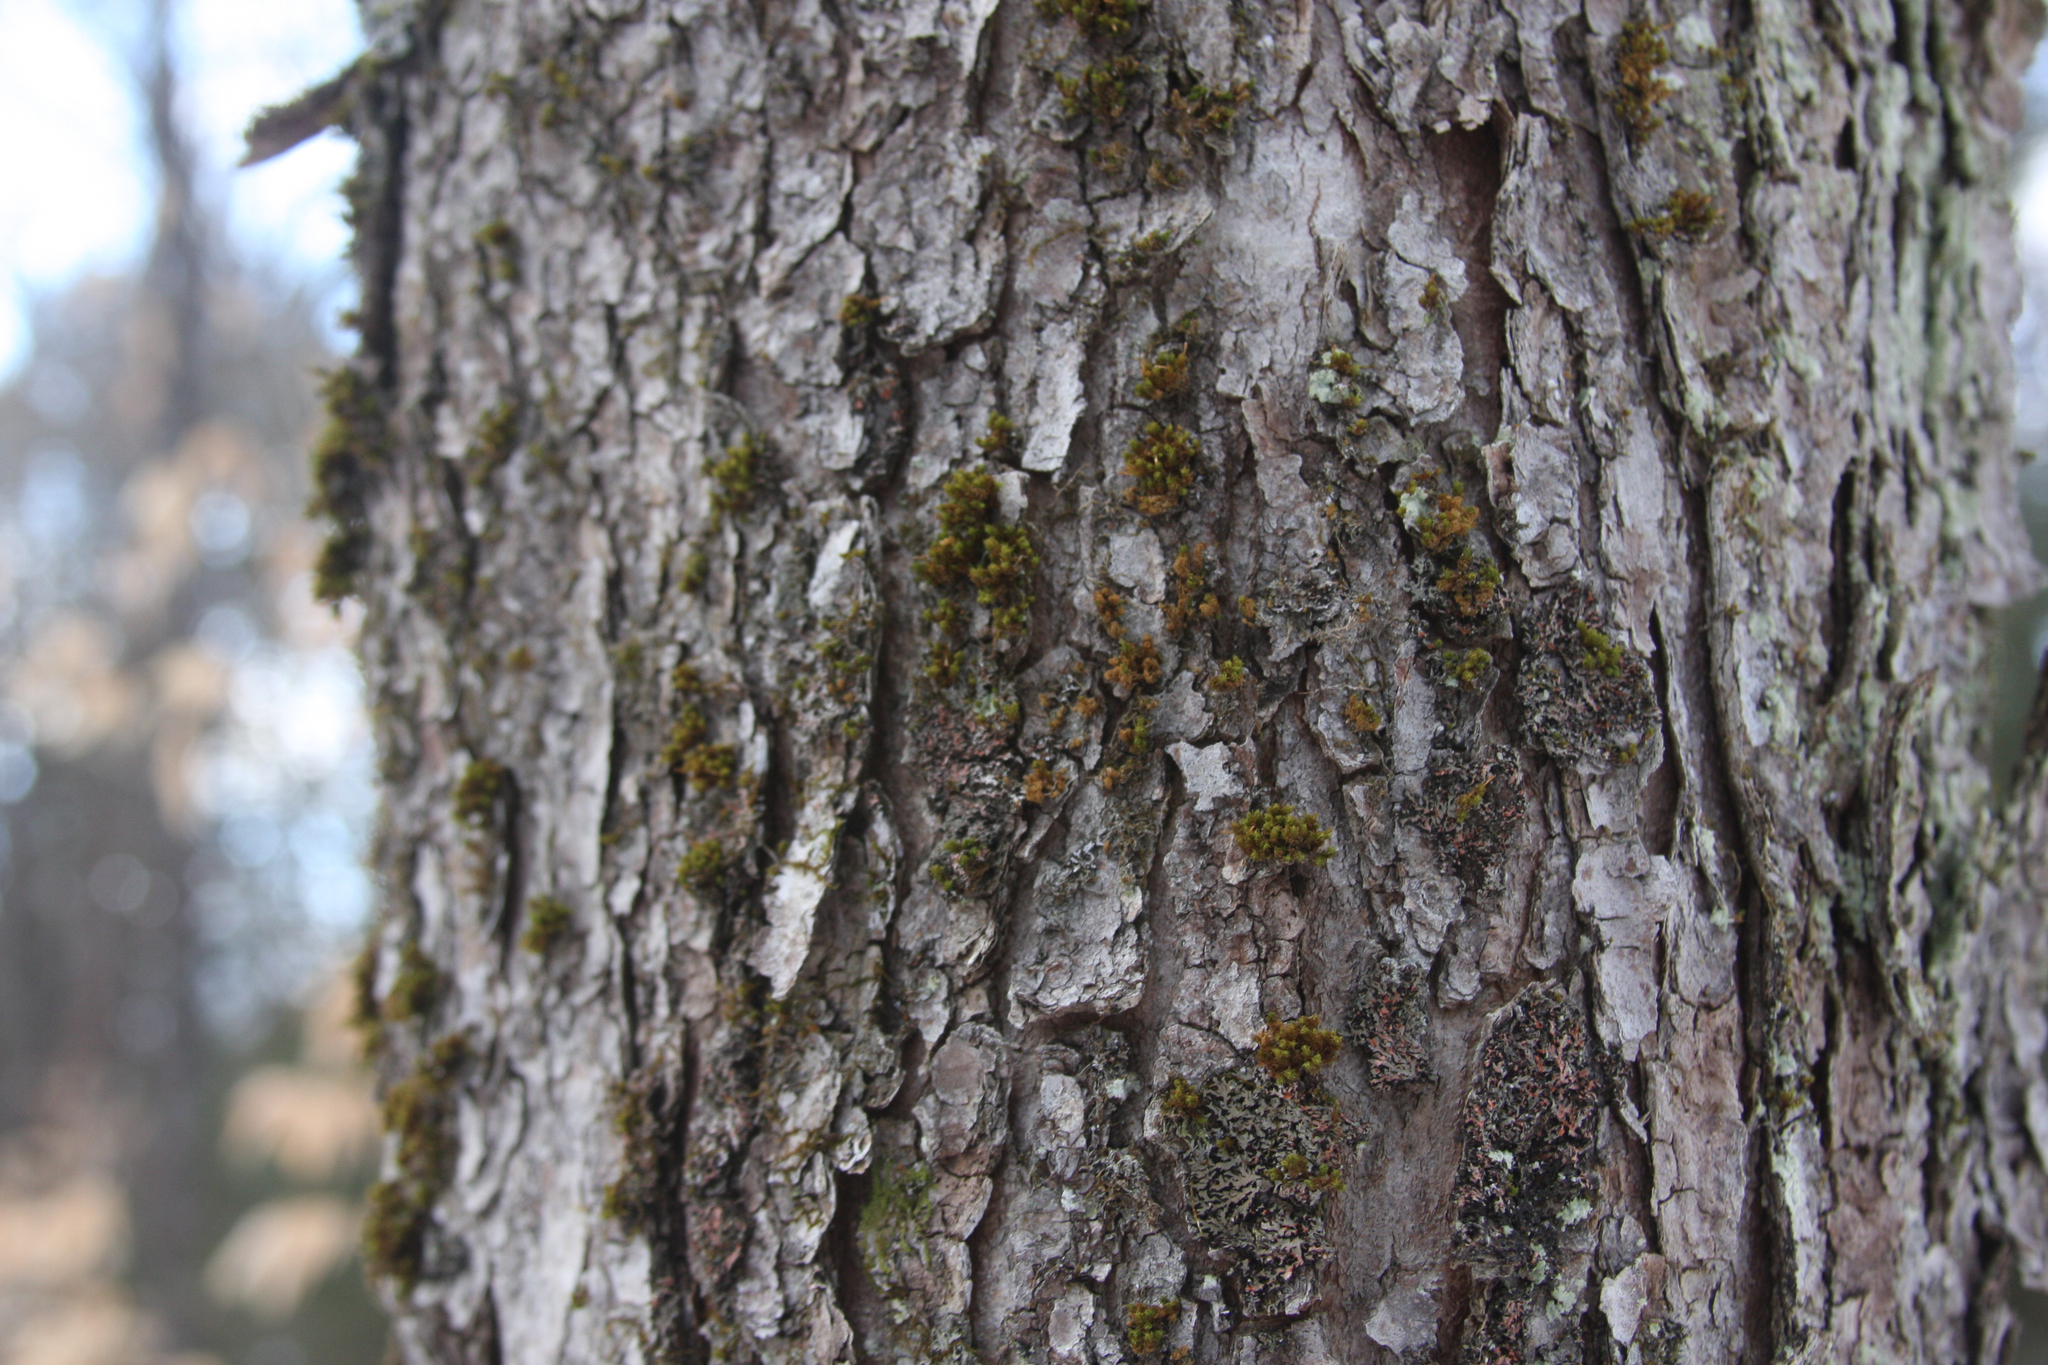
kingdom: Plantae
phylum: Bryophyta
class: Bryopsida
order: Orthotrichales
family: Orthotrichaceae
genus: Ulota
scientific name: Ulota crispa
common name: Crisped pincushion moss
